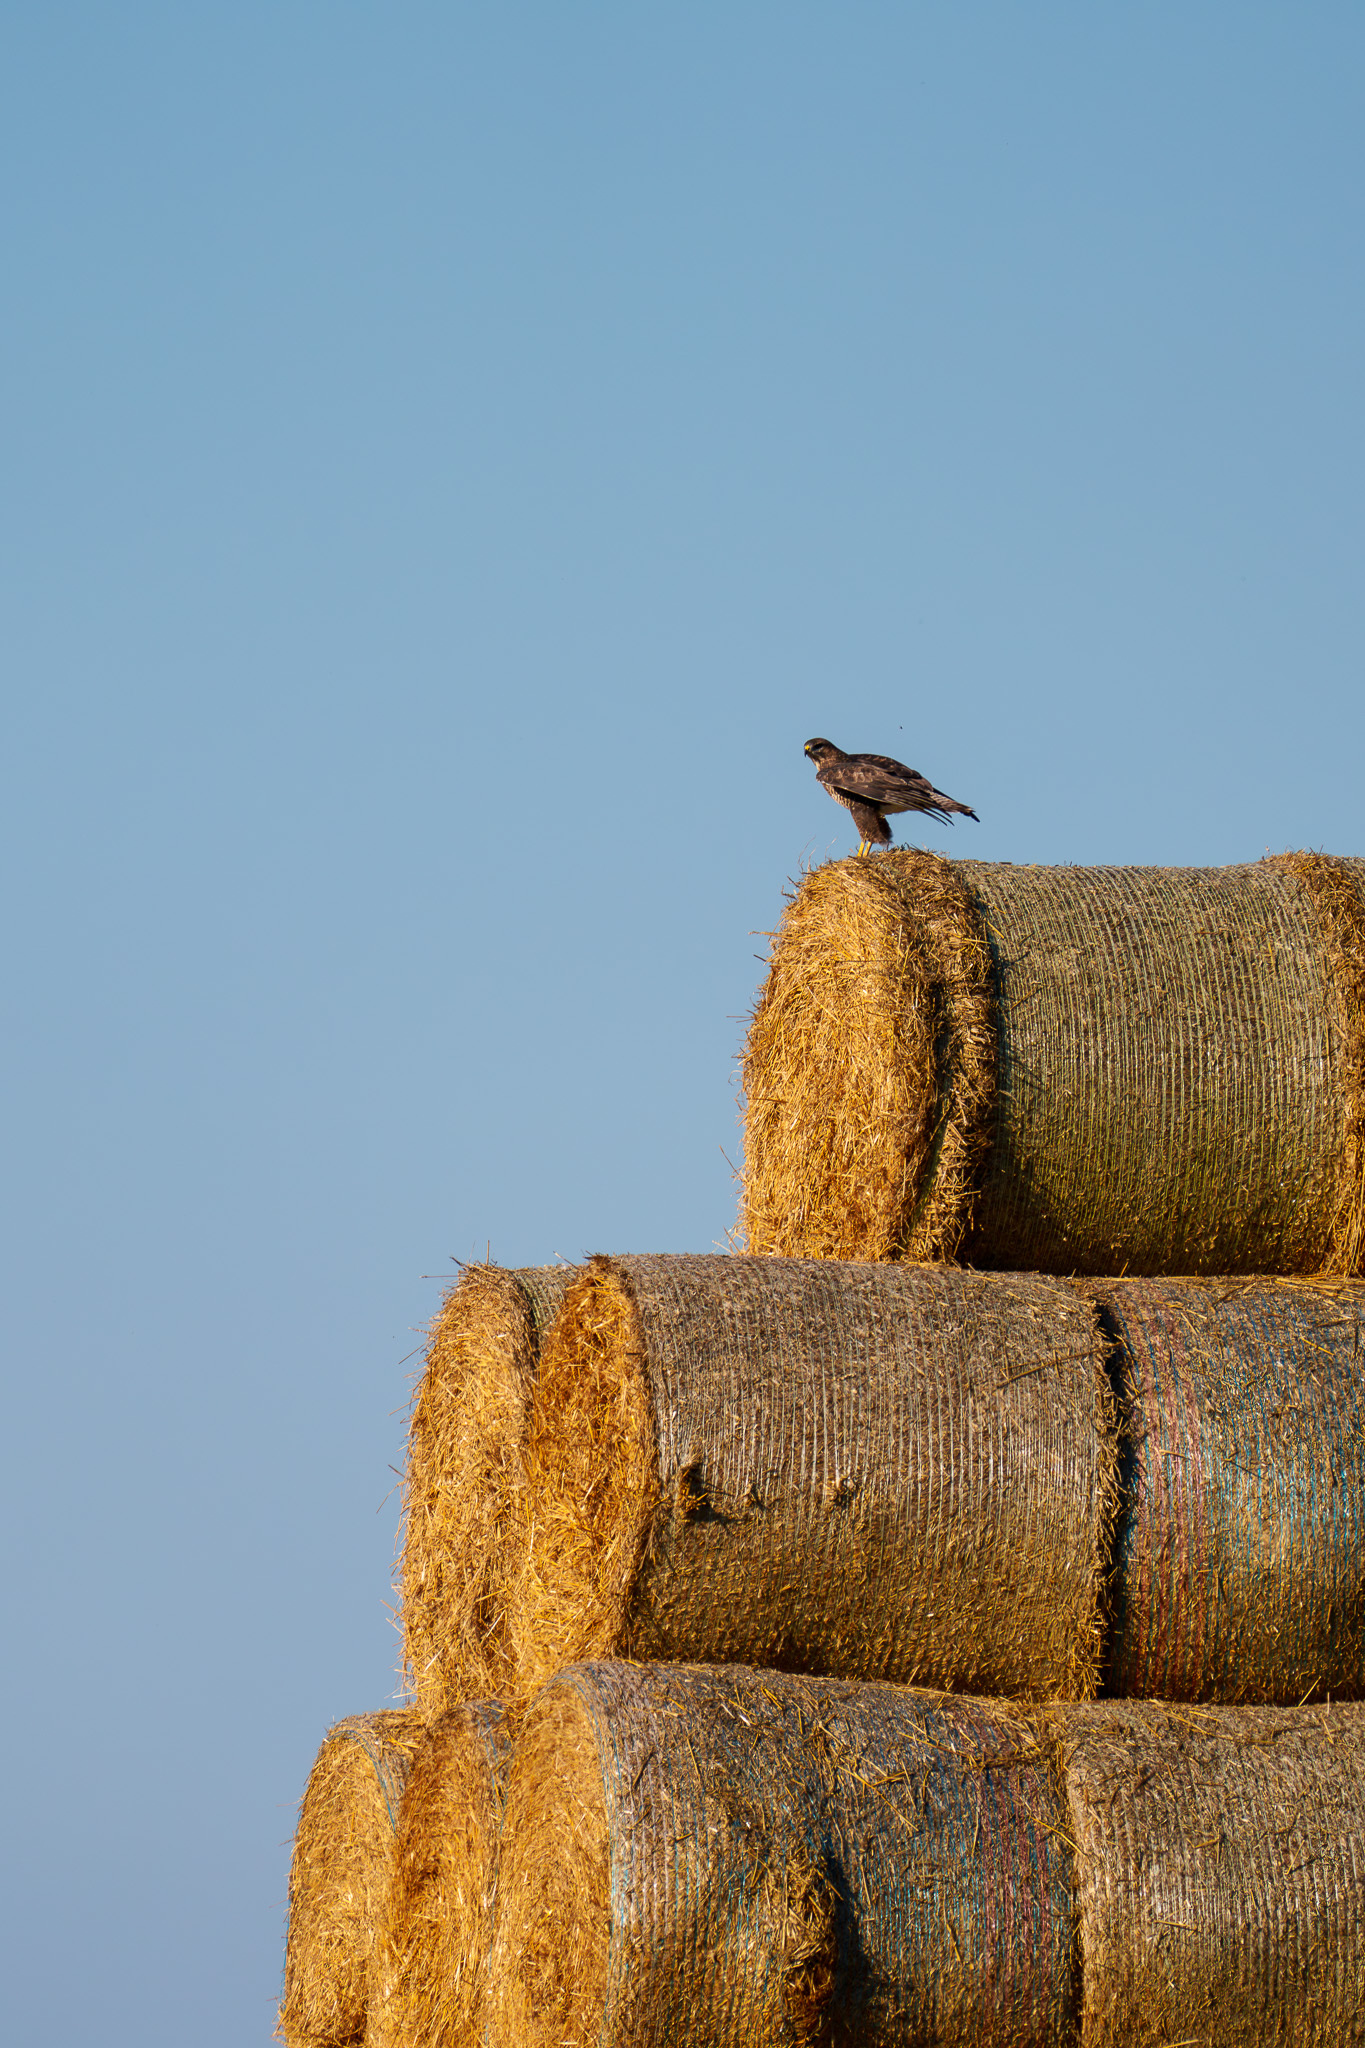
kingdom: Animalia
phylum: Chordata
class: Aves
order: Accipitriformes
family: Accipitridae
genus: Buteo
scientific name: Buteo buteo
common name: Common buzzard
